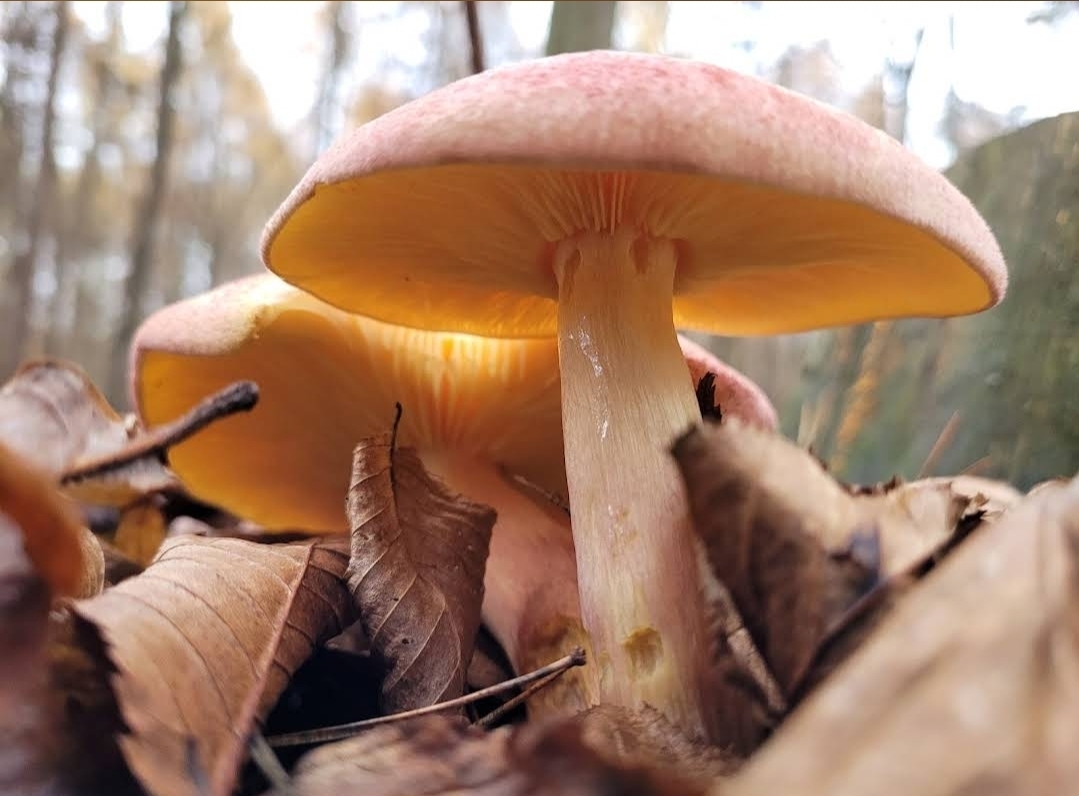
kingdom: Fungi
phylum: Basidiomycota
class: Agaricomycetes
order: Agaricales
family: Tricholomataceae
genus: Tricholomopsis
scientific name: Tricholomopsis rutilans
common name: Plums and custard
